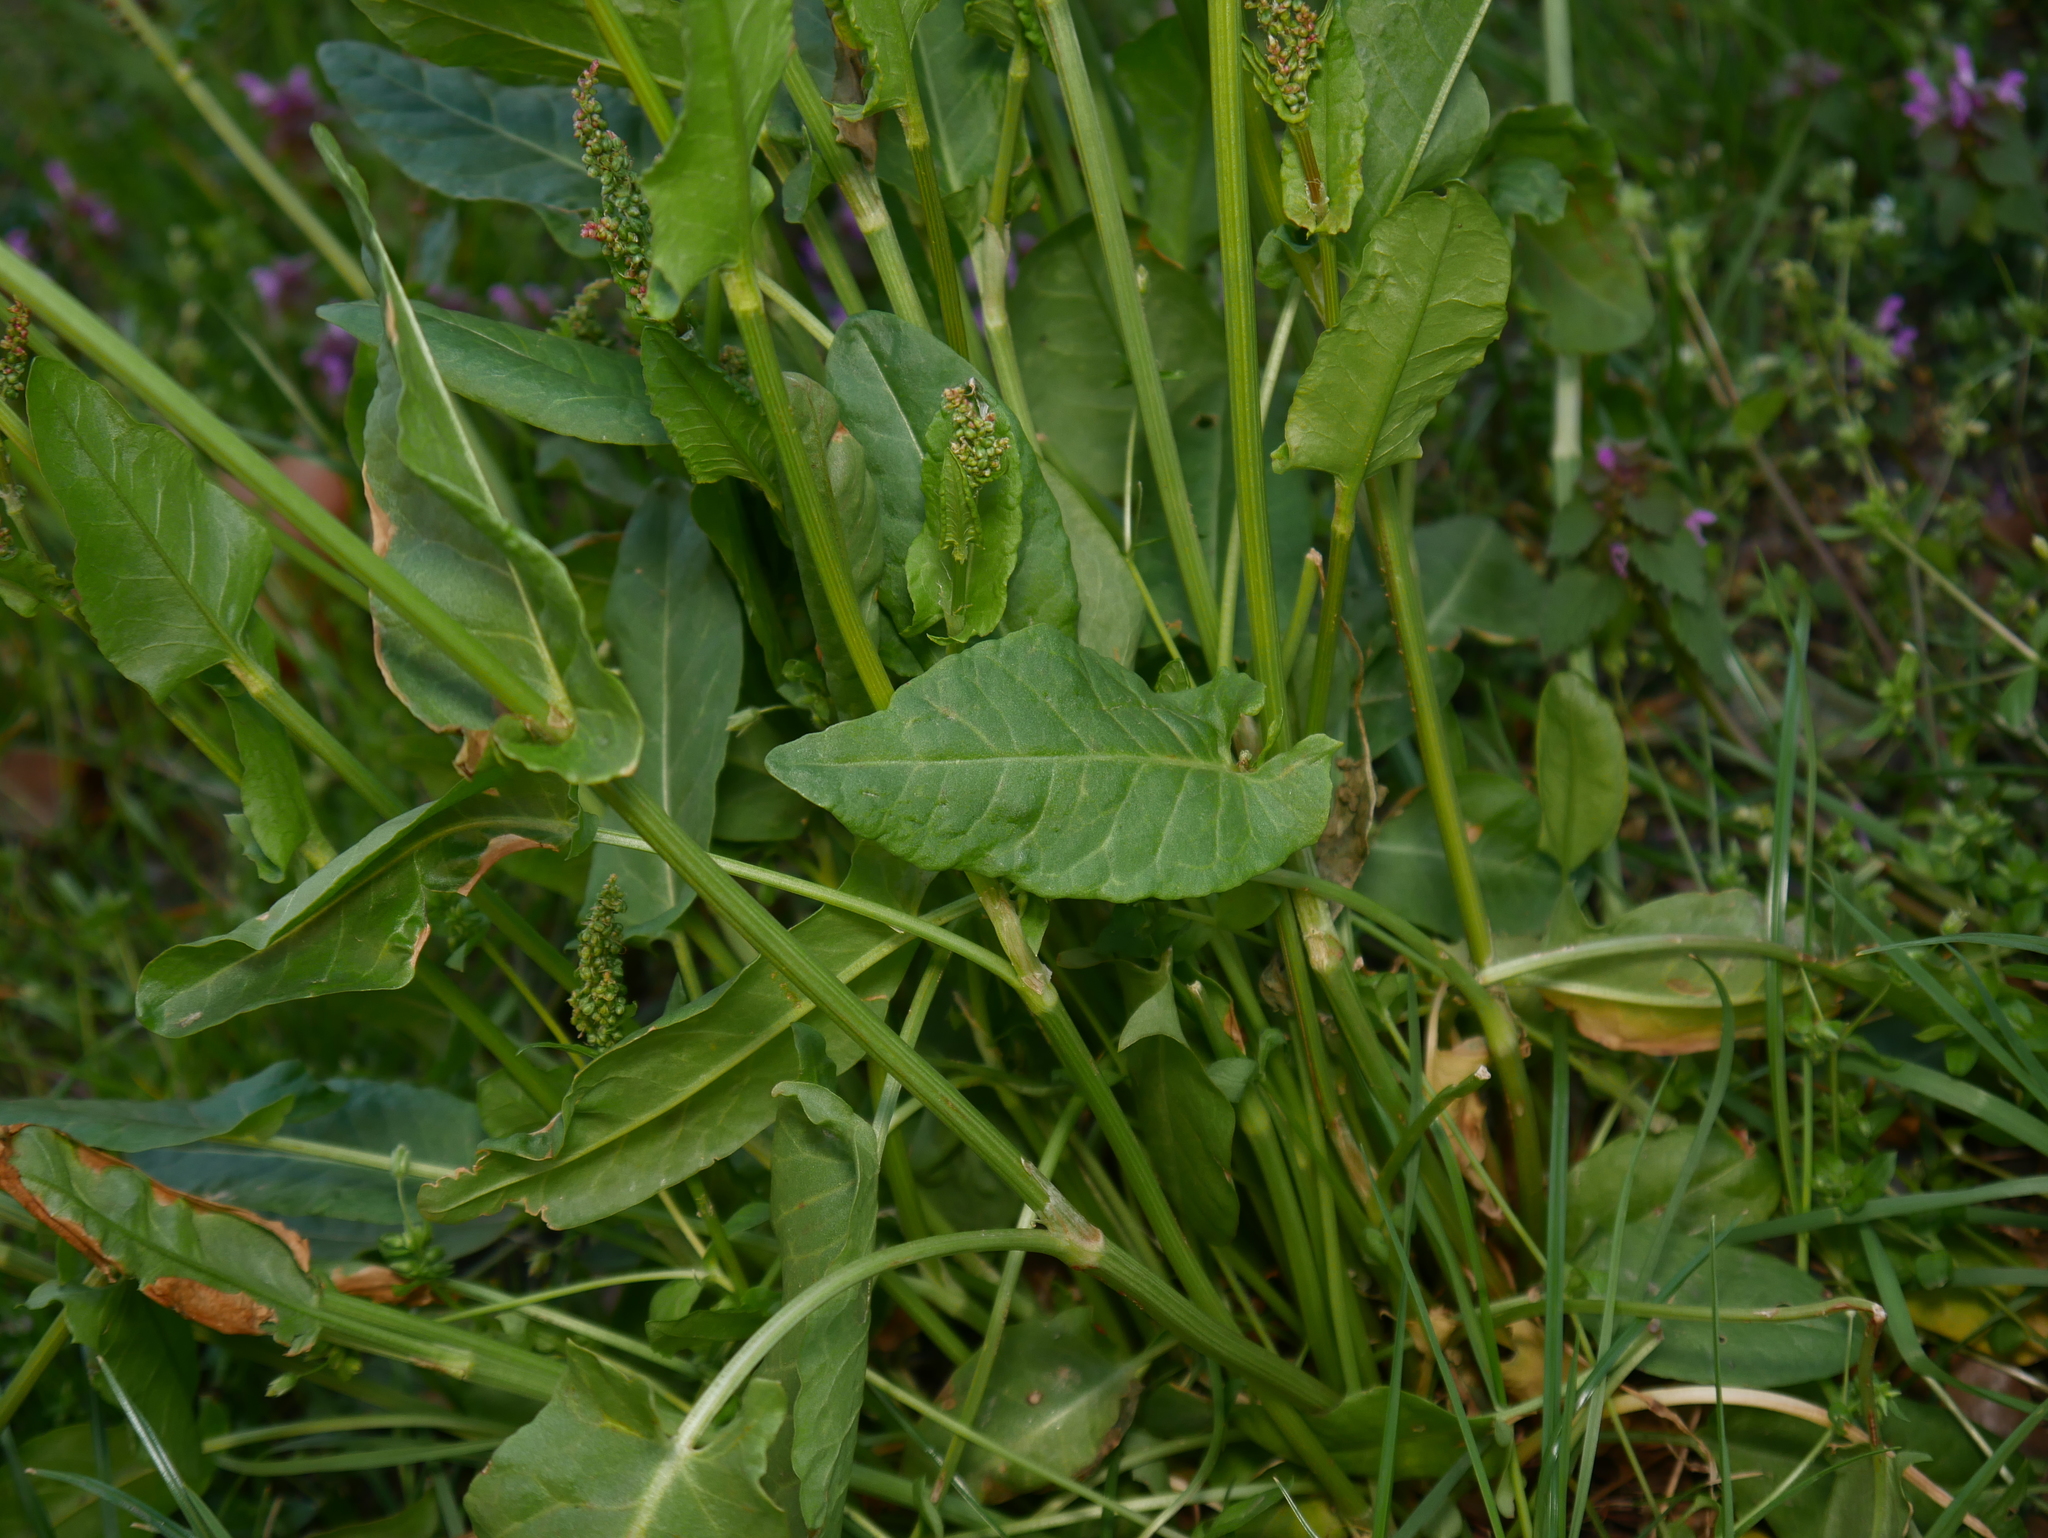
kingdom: Plantae
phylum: Tracheophyta
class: Magnoliopsida
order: Caryophyllales
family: Polygonaceae
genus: Rumex
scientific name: Rumex acetosa
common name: Garden sorrel
